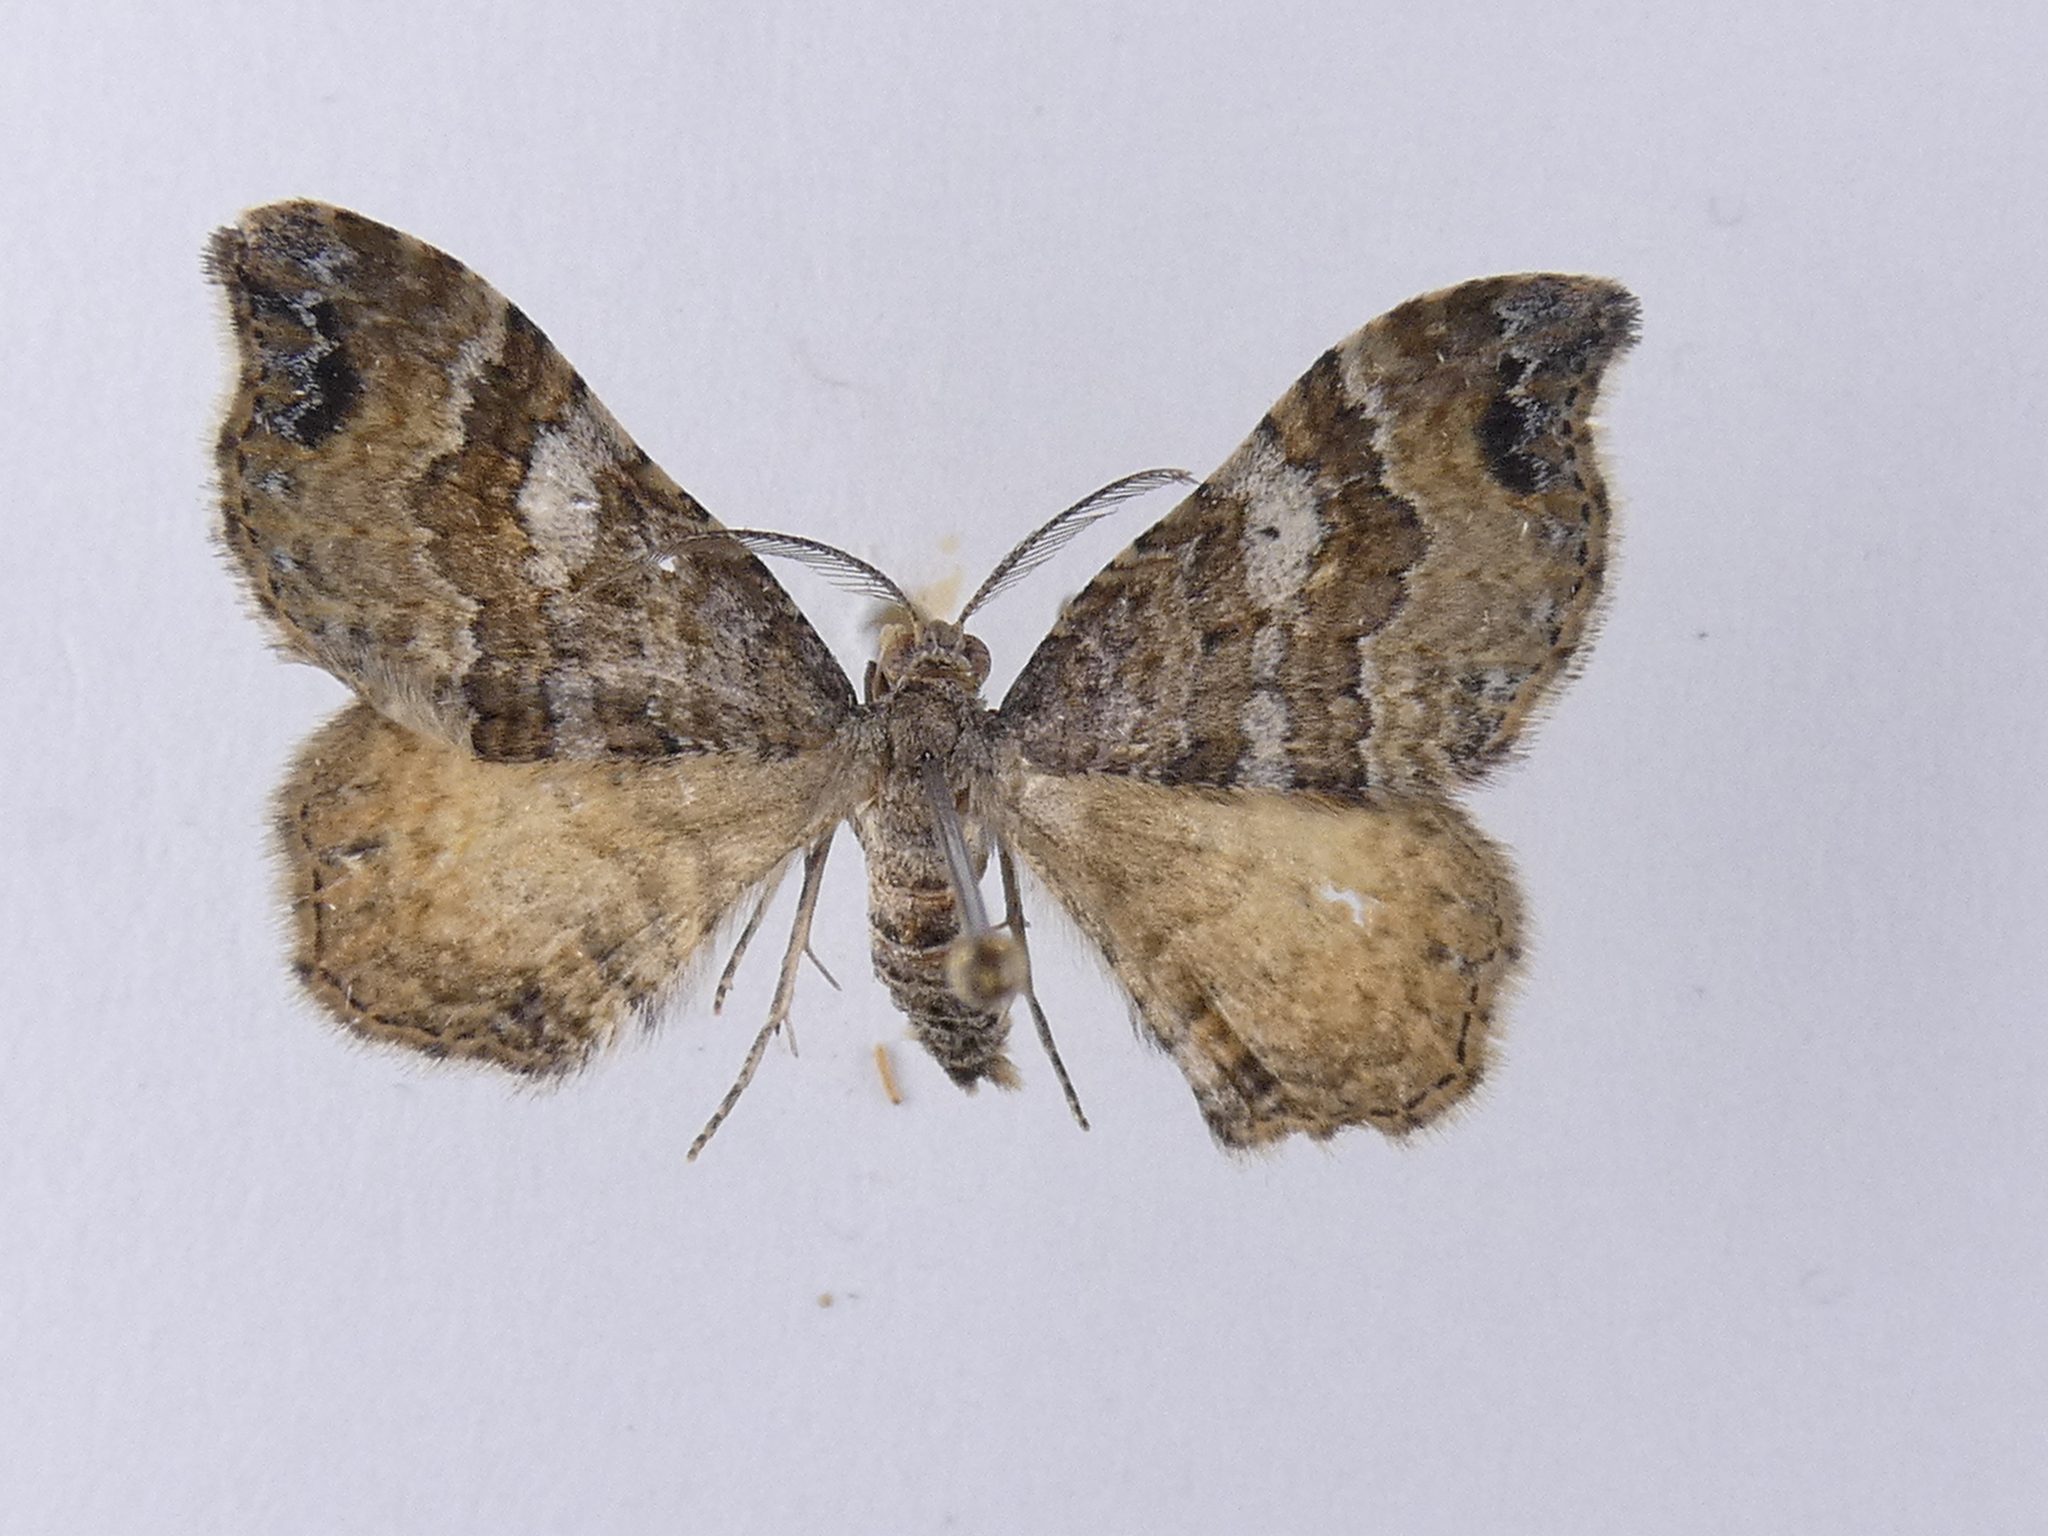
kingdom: Animalia
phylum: Arthropoda
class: Insecta
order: Lepidoptera
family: Geometridae
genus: Homodotis
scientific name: Homodotis megaspilata
